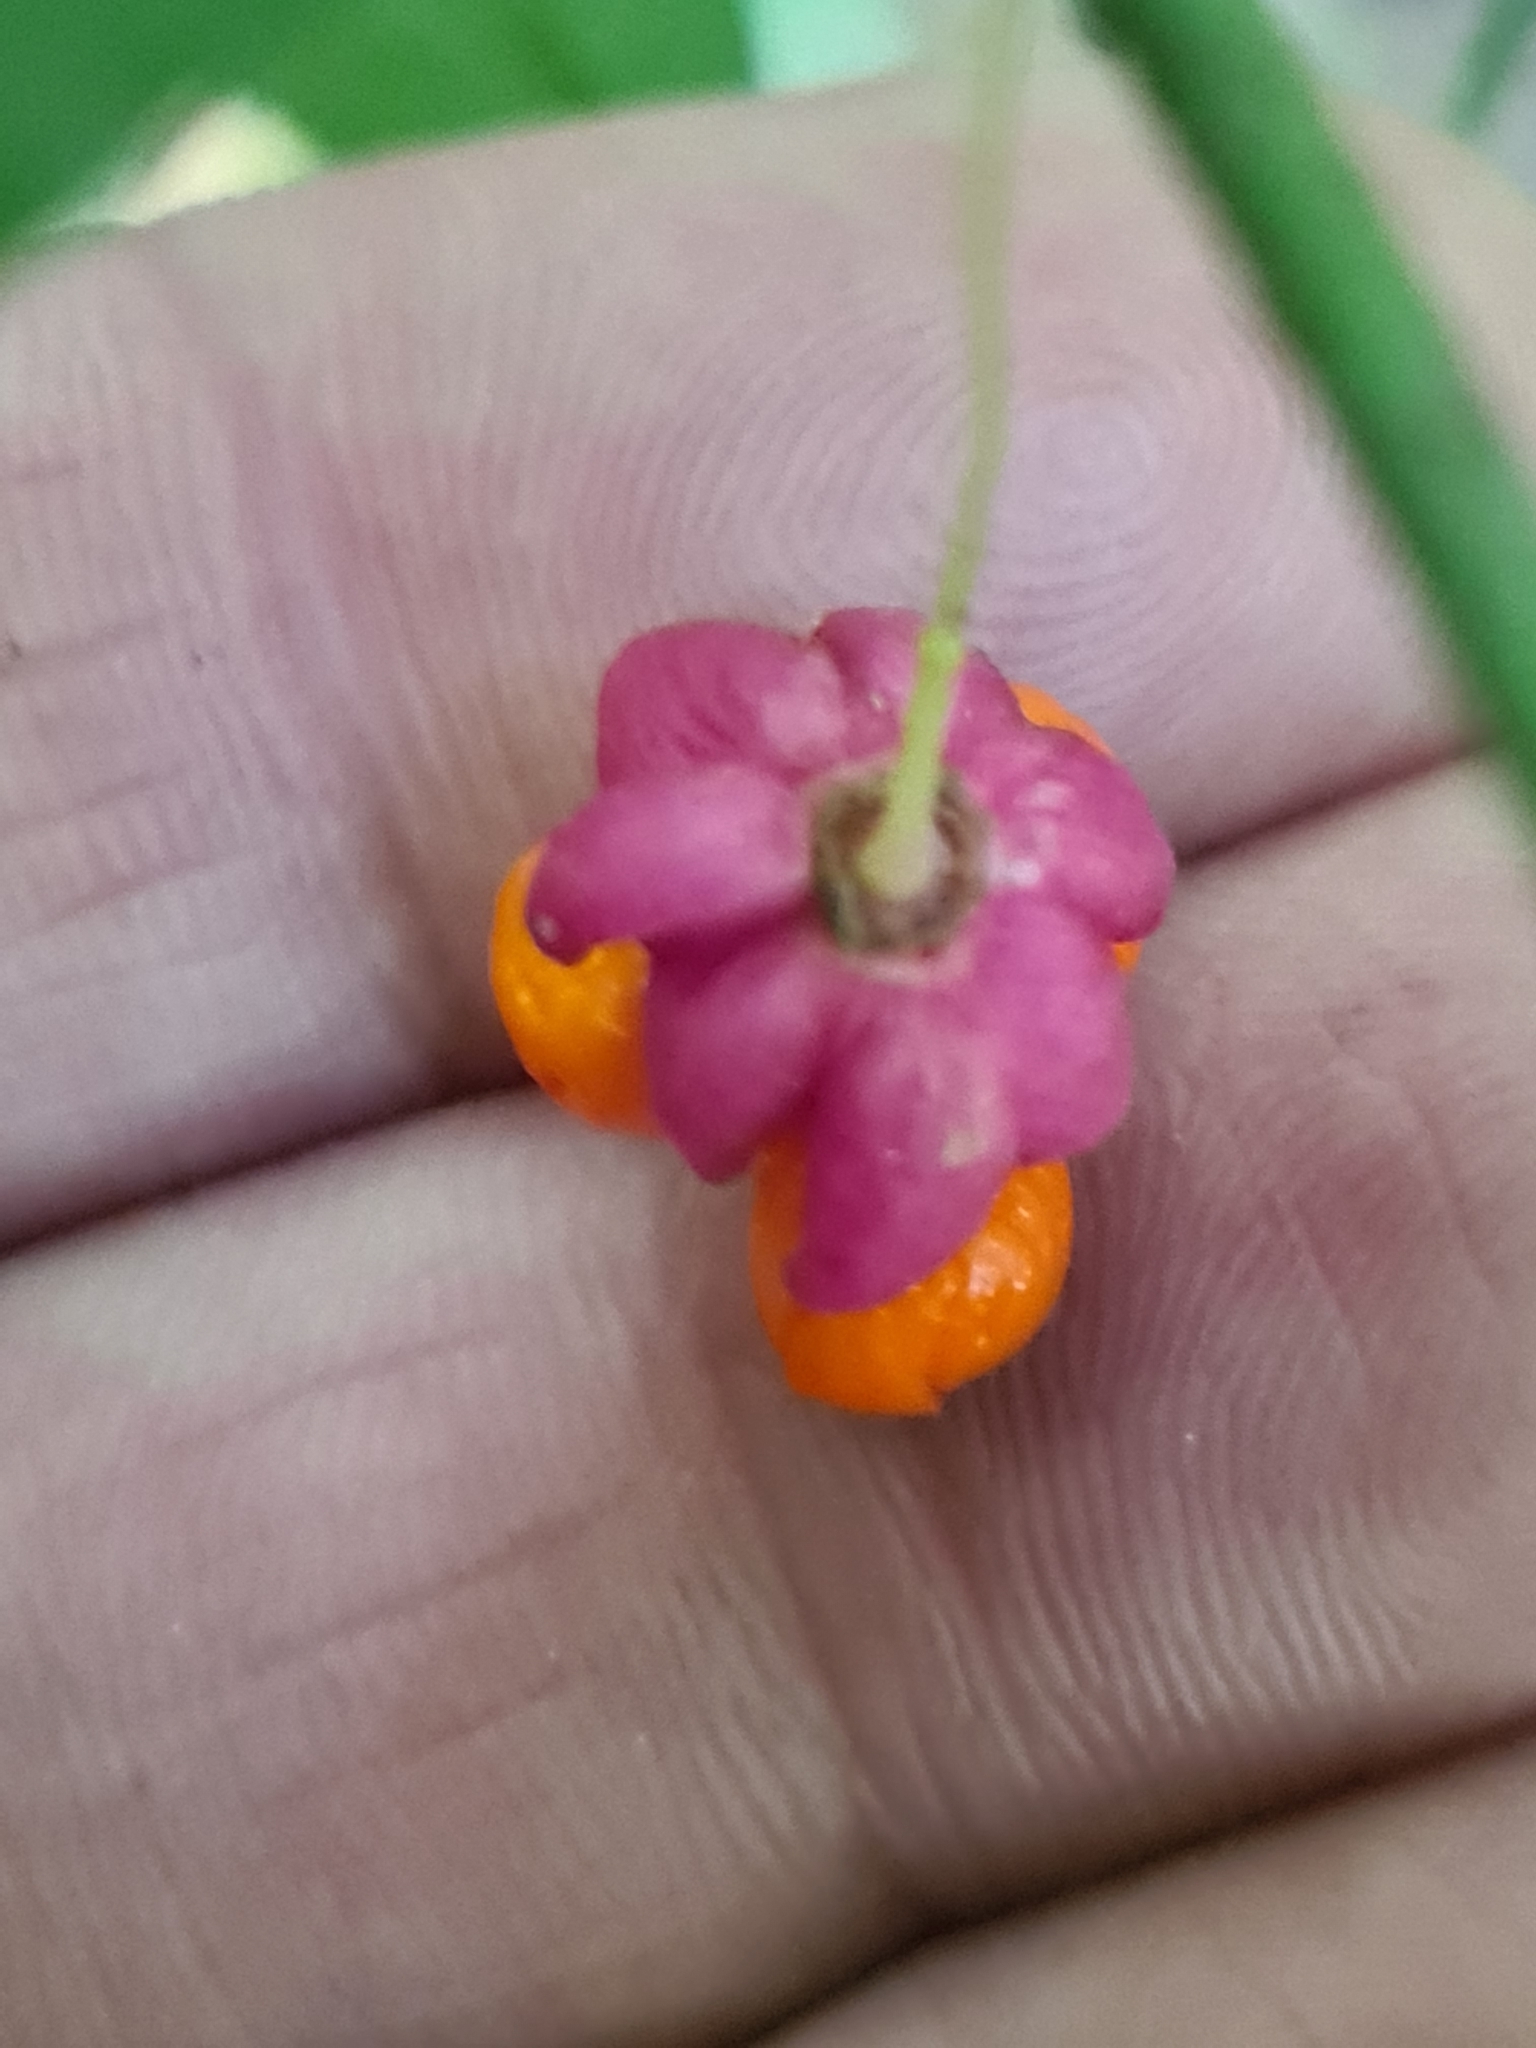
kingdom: Plantae
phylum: Tracheophyta
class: Magnoliopsida
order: Celastrales
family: Celastraceae
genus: Euonymus
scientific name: Euonymus verrucosus
